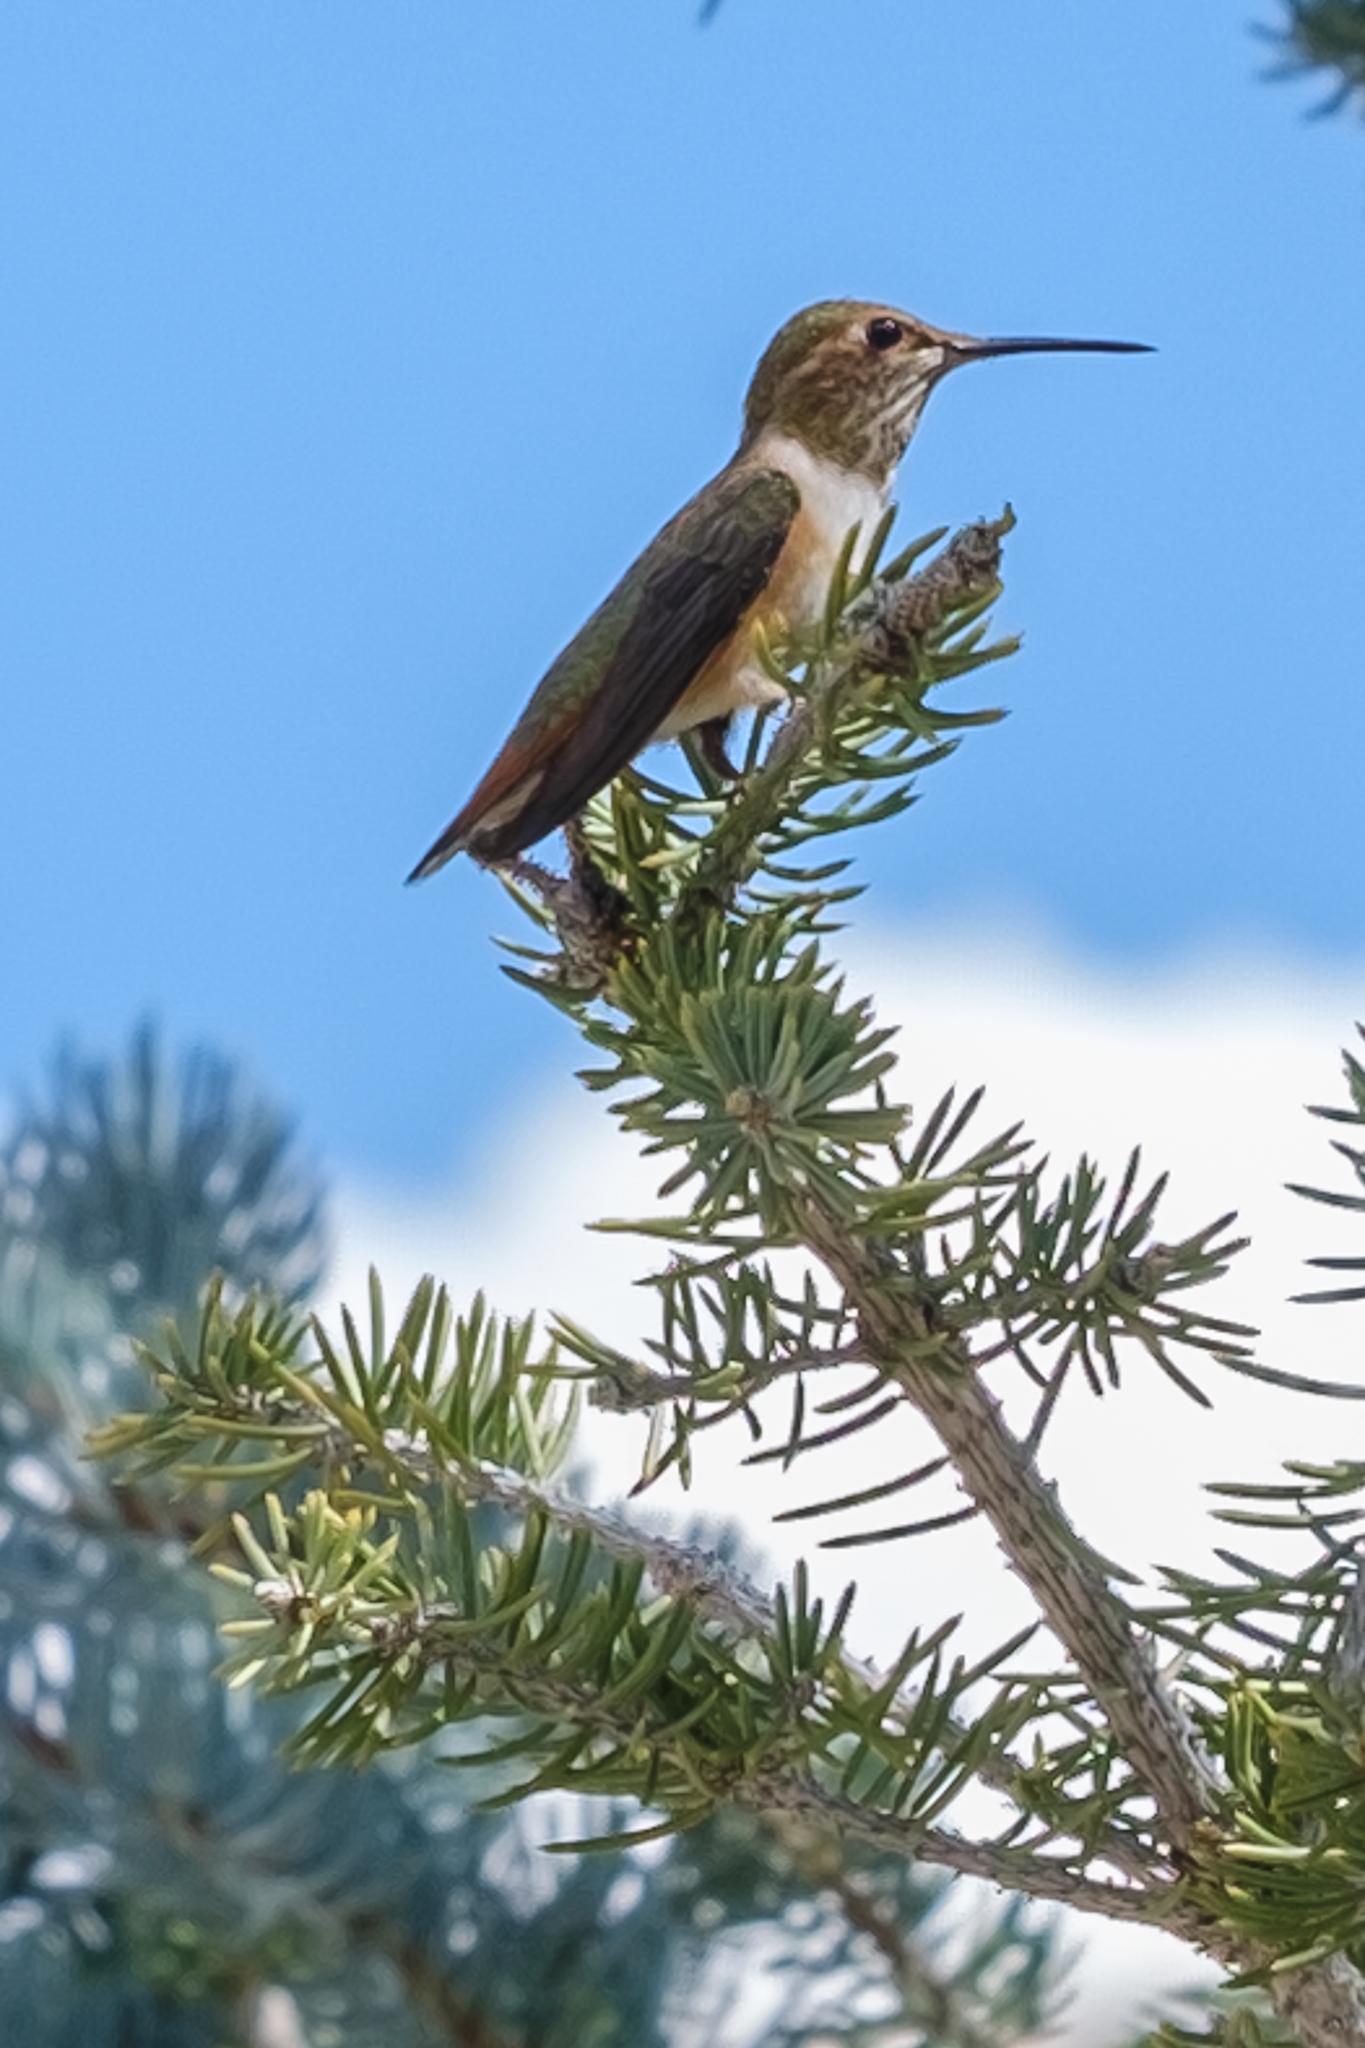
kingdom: Animalia
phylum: Chordata
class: Aves
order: Apodiformes
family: Trochilidae
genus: Selasphorus
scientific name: Selasphorus rufus
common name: Rufous hummingbird
